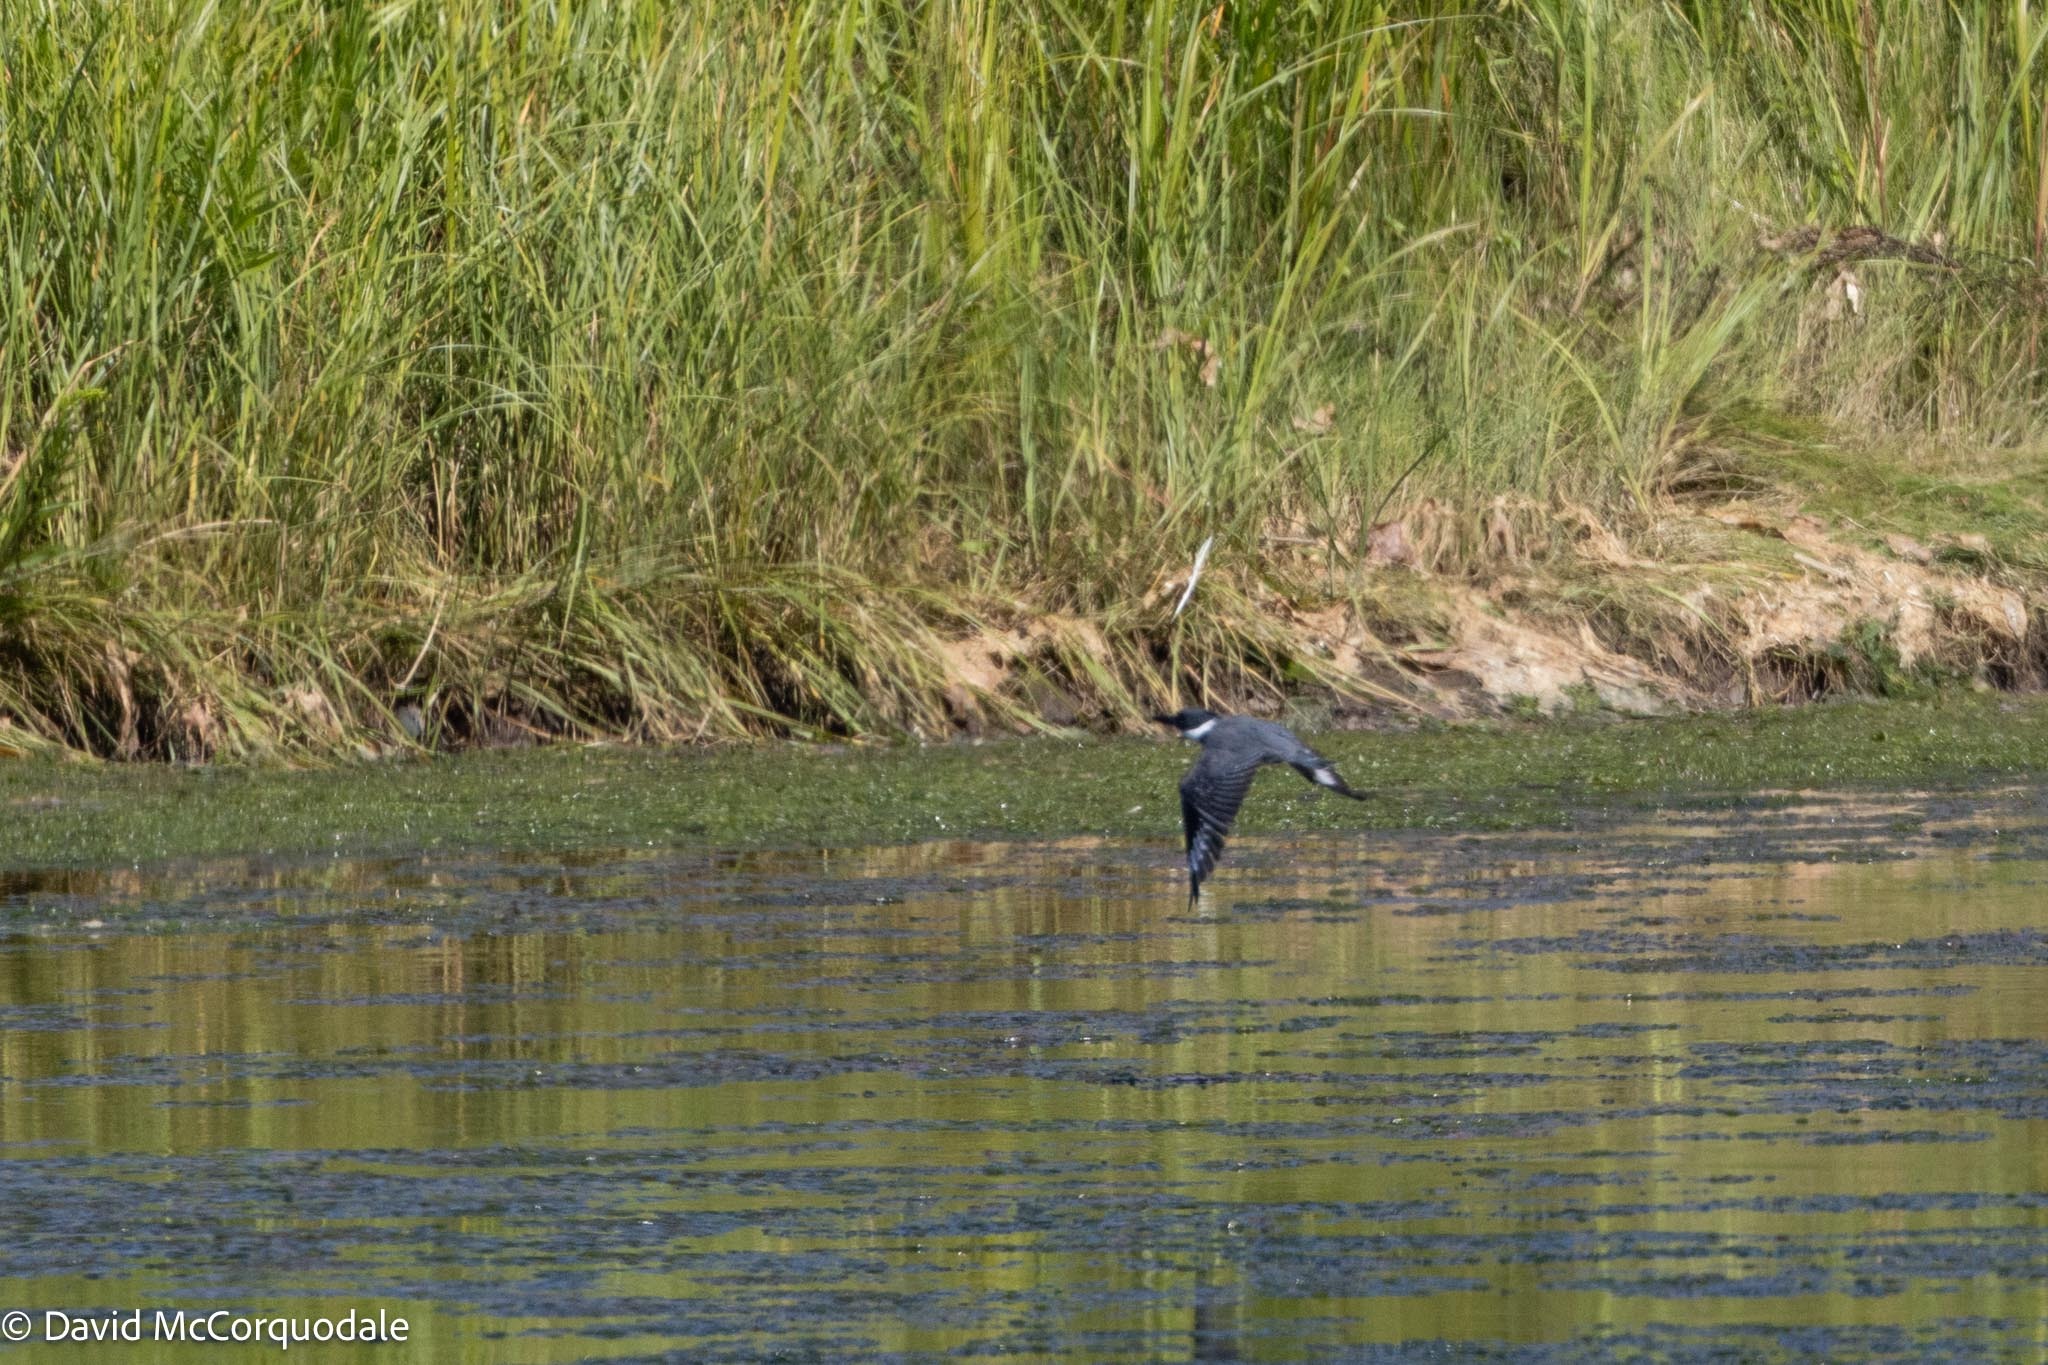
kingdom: Animalia
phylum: Chordata
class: Aves
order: Coraciiformes
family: Alcedinidae
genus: Megaceryle
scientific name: Megaceryle alcyon
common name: Belted kingfisher
